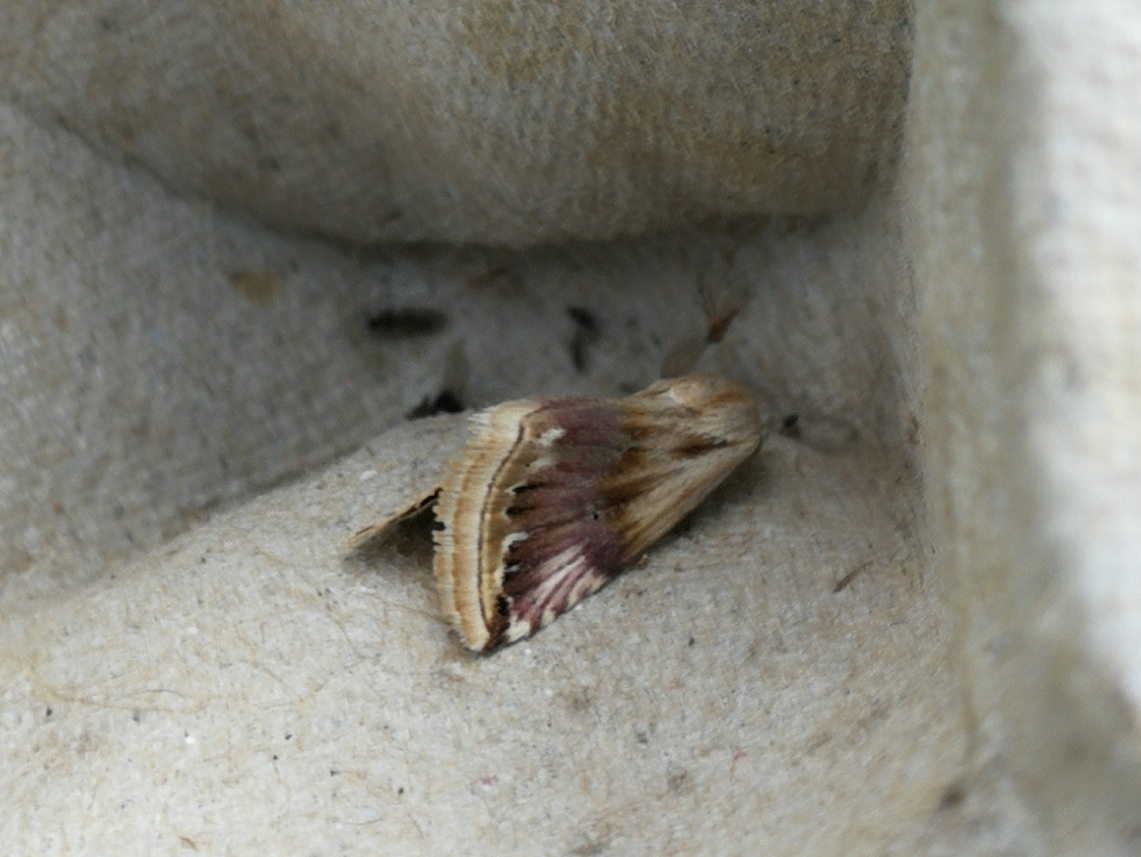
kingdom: Animalia
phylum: Arthropoda
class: Insecta
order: Lepidoptera
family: Noctuidae
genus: Eublemma
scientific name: Eublemma ostrina
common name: Purple marbled
